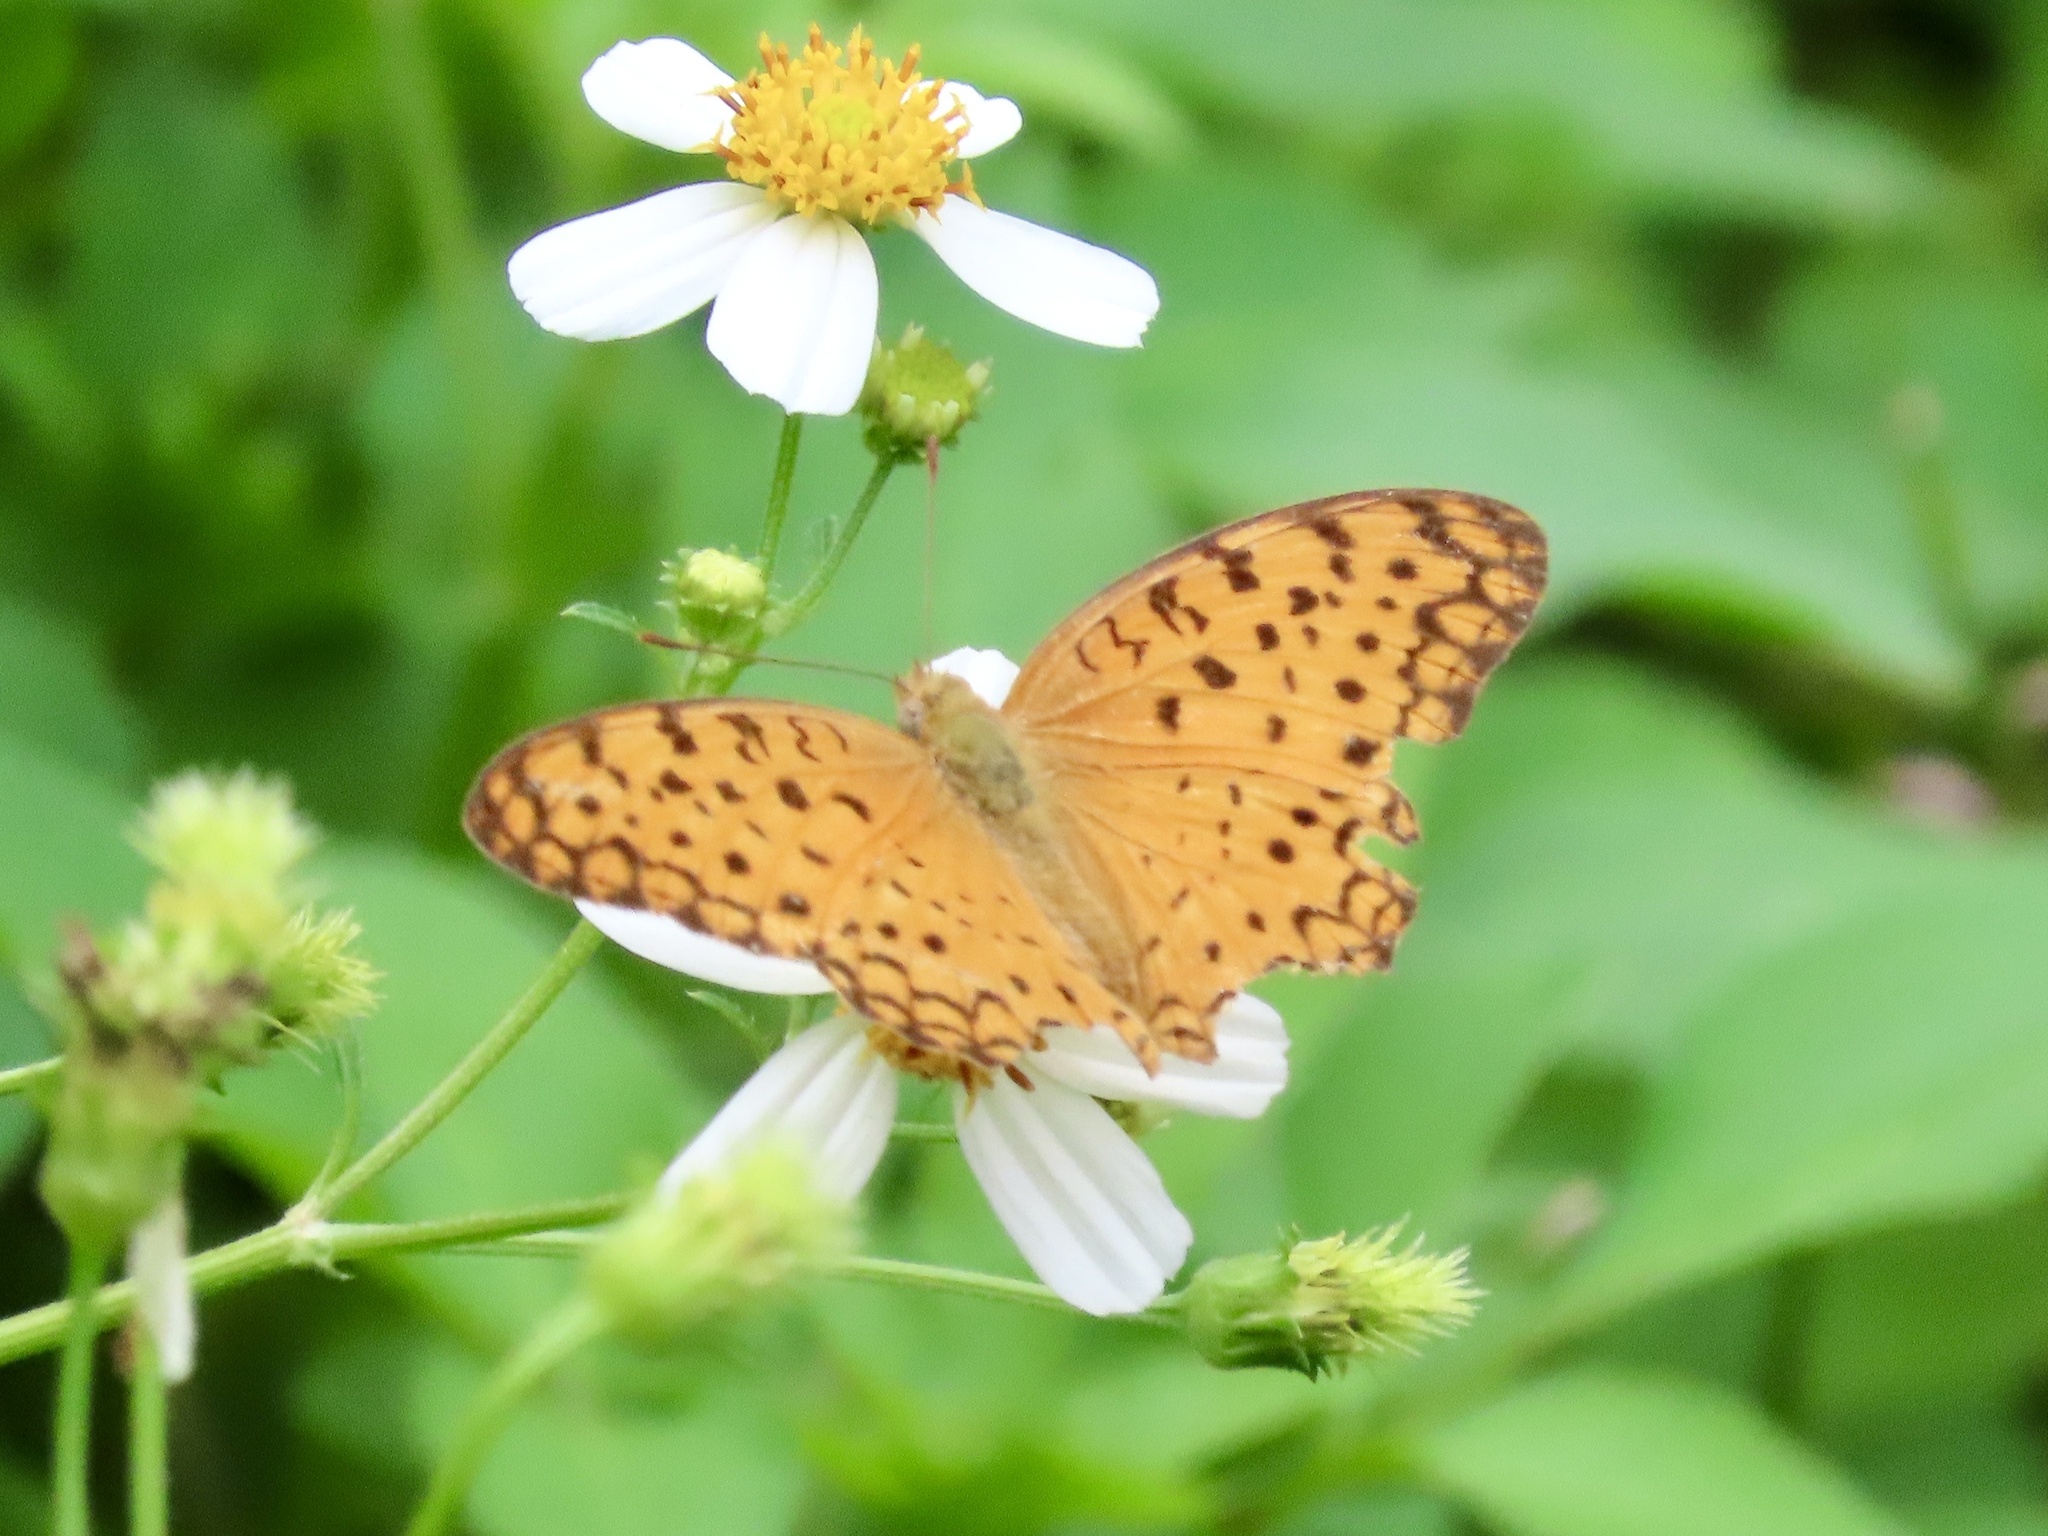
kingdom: Animalia
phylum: Arthropoda
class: Insecta
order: Lepidoptera
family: Nymphalidae
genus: Phalanta
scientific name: Phalanta phalantha
